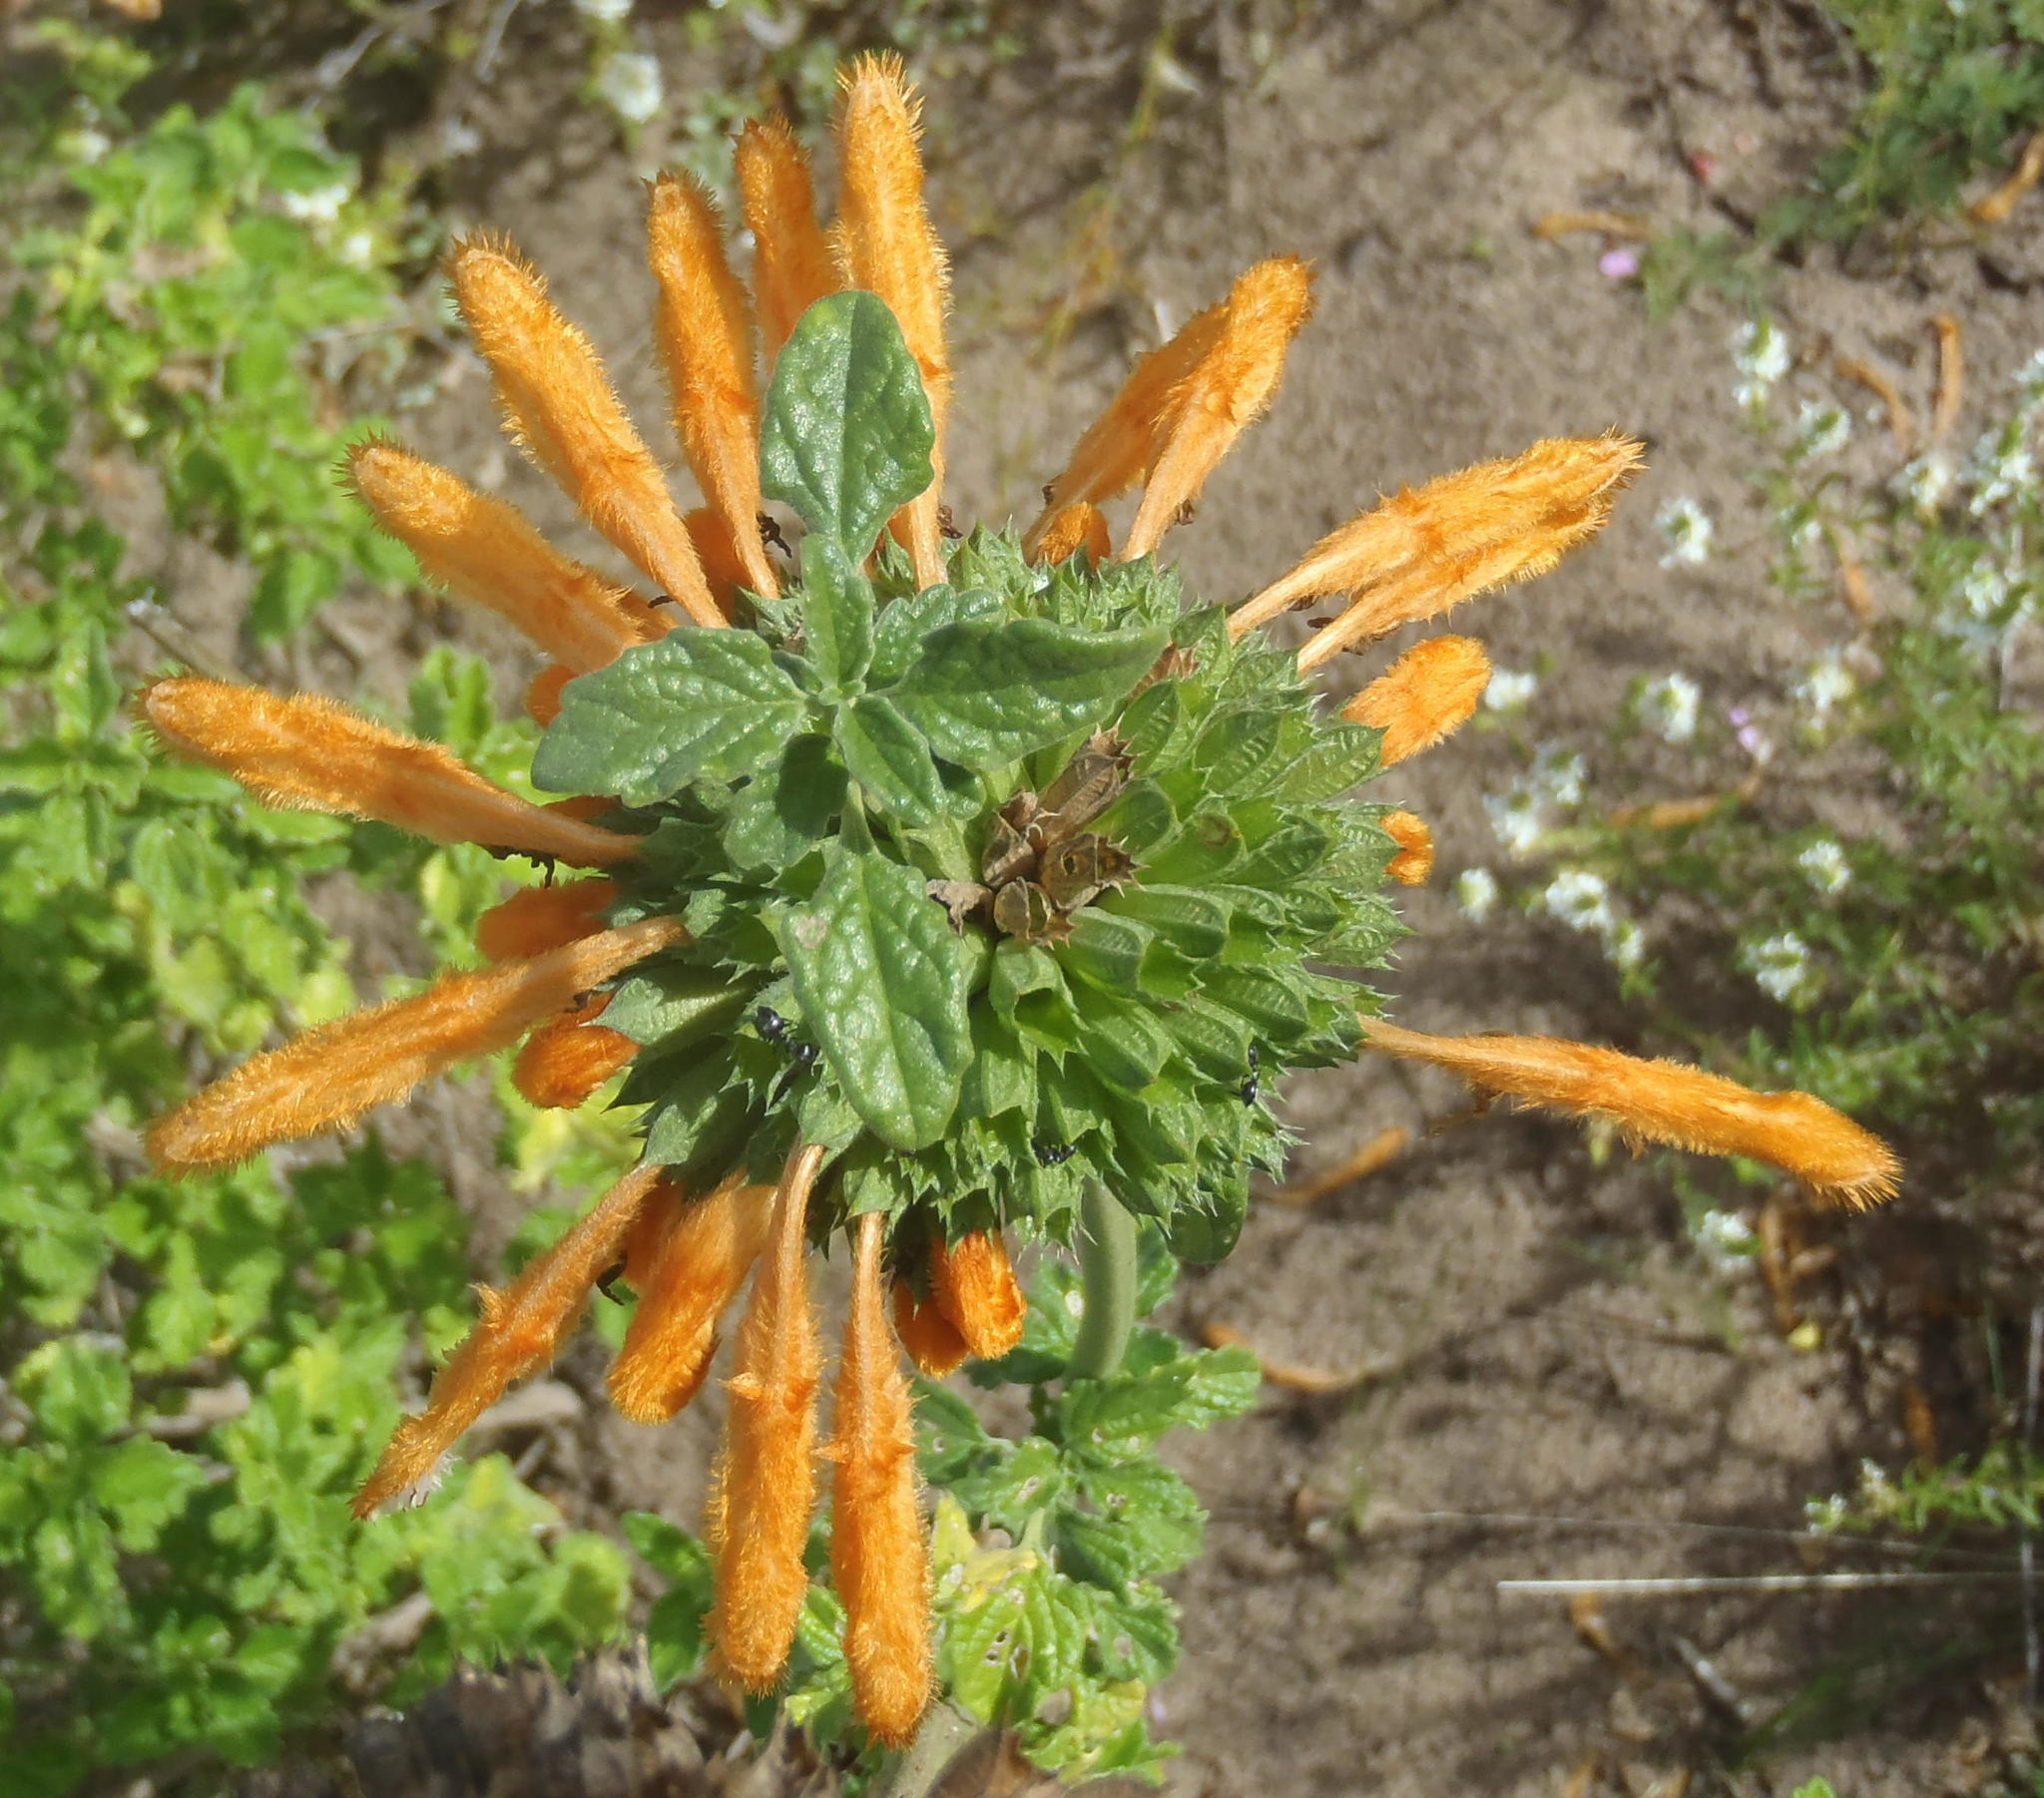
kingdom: Plantae
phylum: Tracheophyta
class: Magnoliopsida
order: Lamiales
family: Lamiaceae
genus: Leonotis
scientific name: Leonotis ocymifolia
